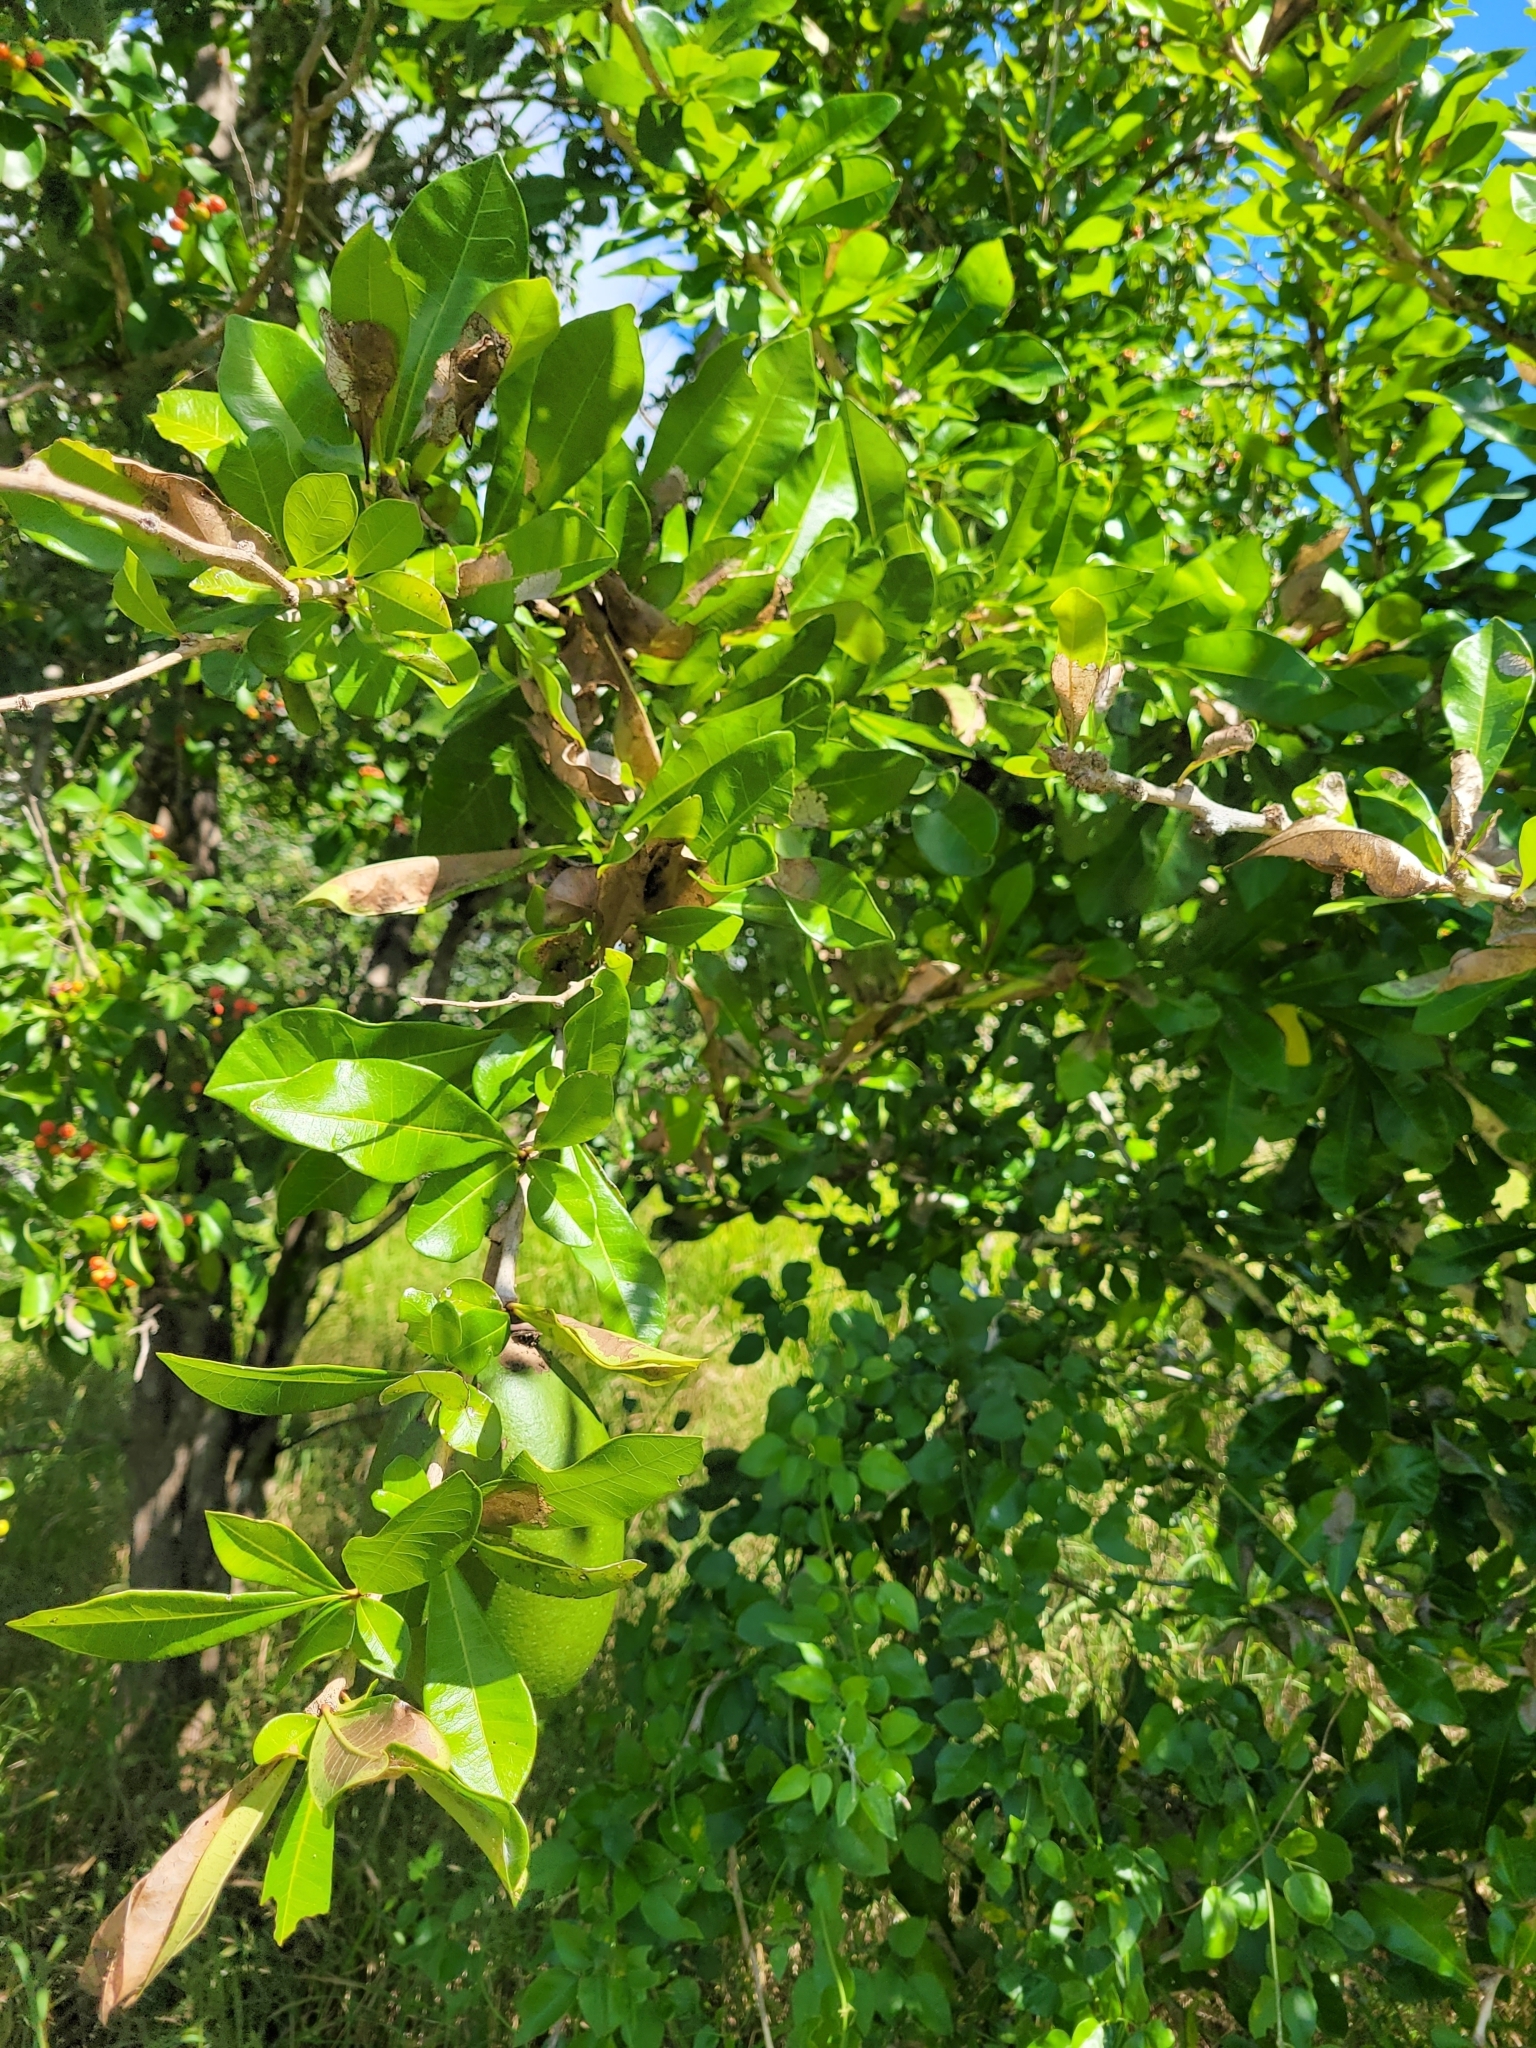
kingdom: Plantae
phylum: Tracheophyta
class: Magnoliopsida
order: Lamiales
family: Bignoniaceae
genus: Crescentia
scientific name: Crescentia cujete
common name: Calabash
